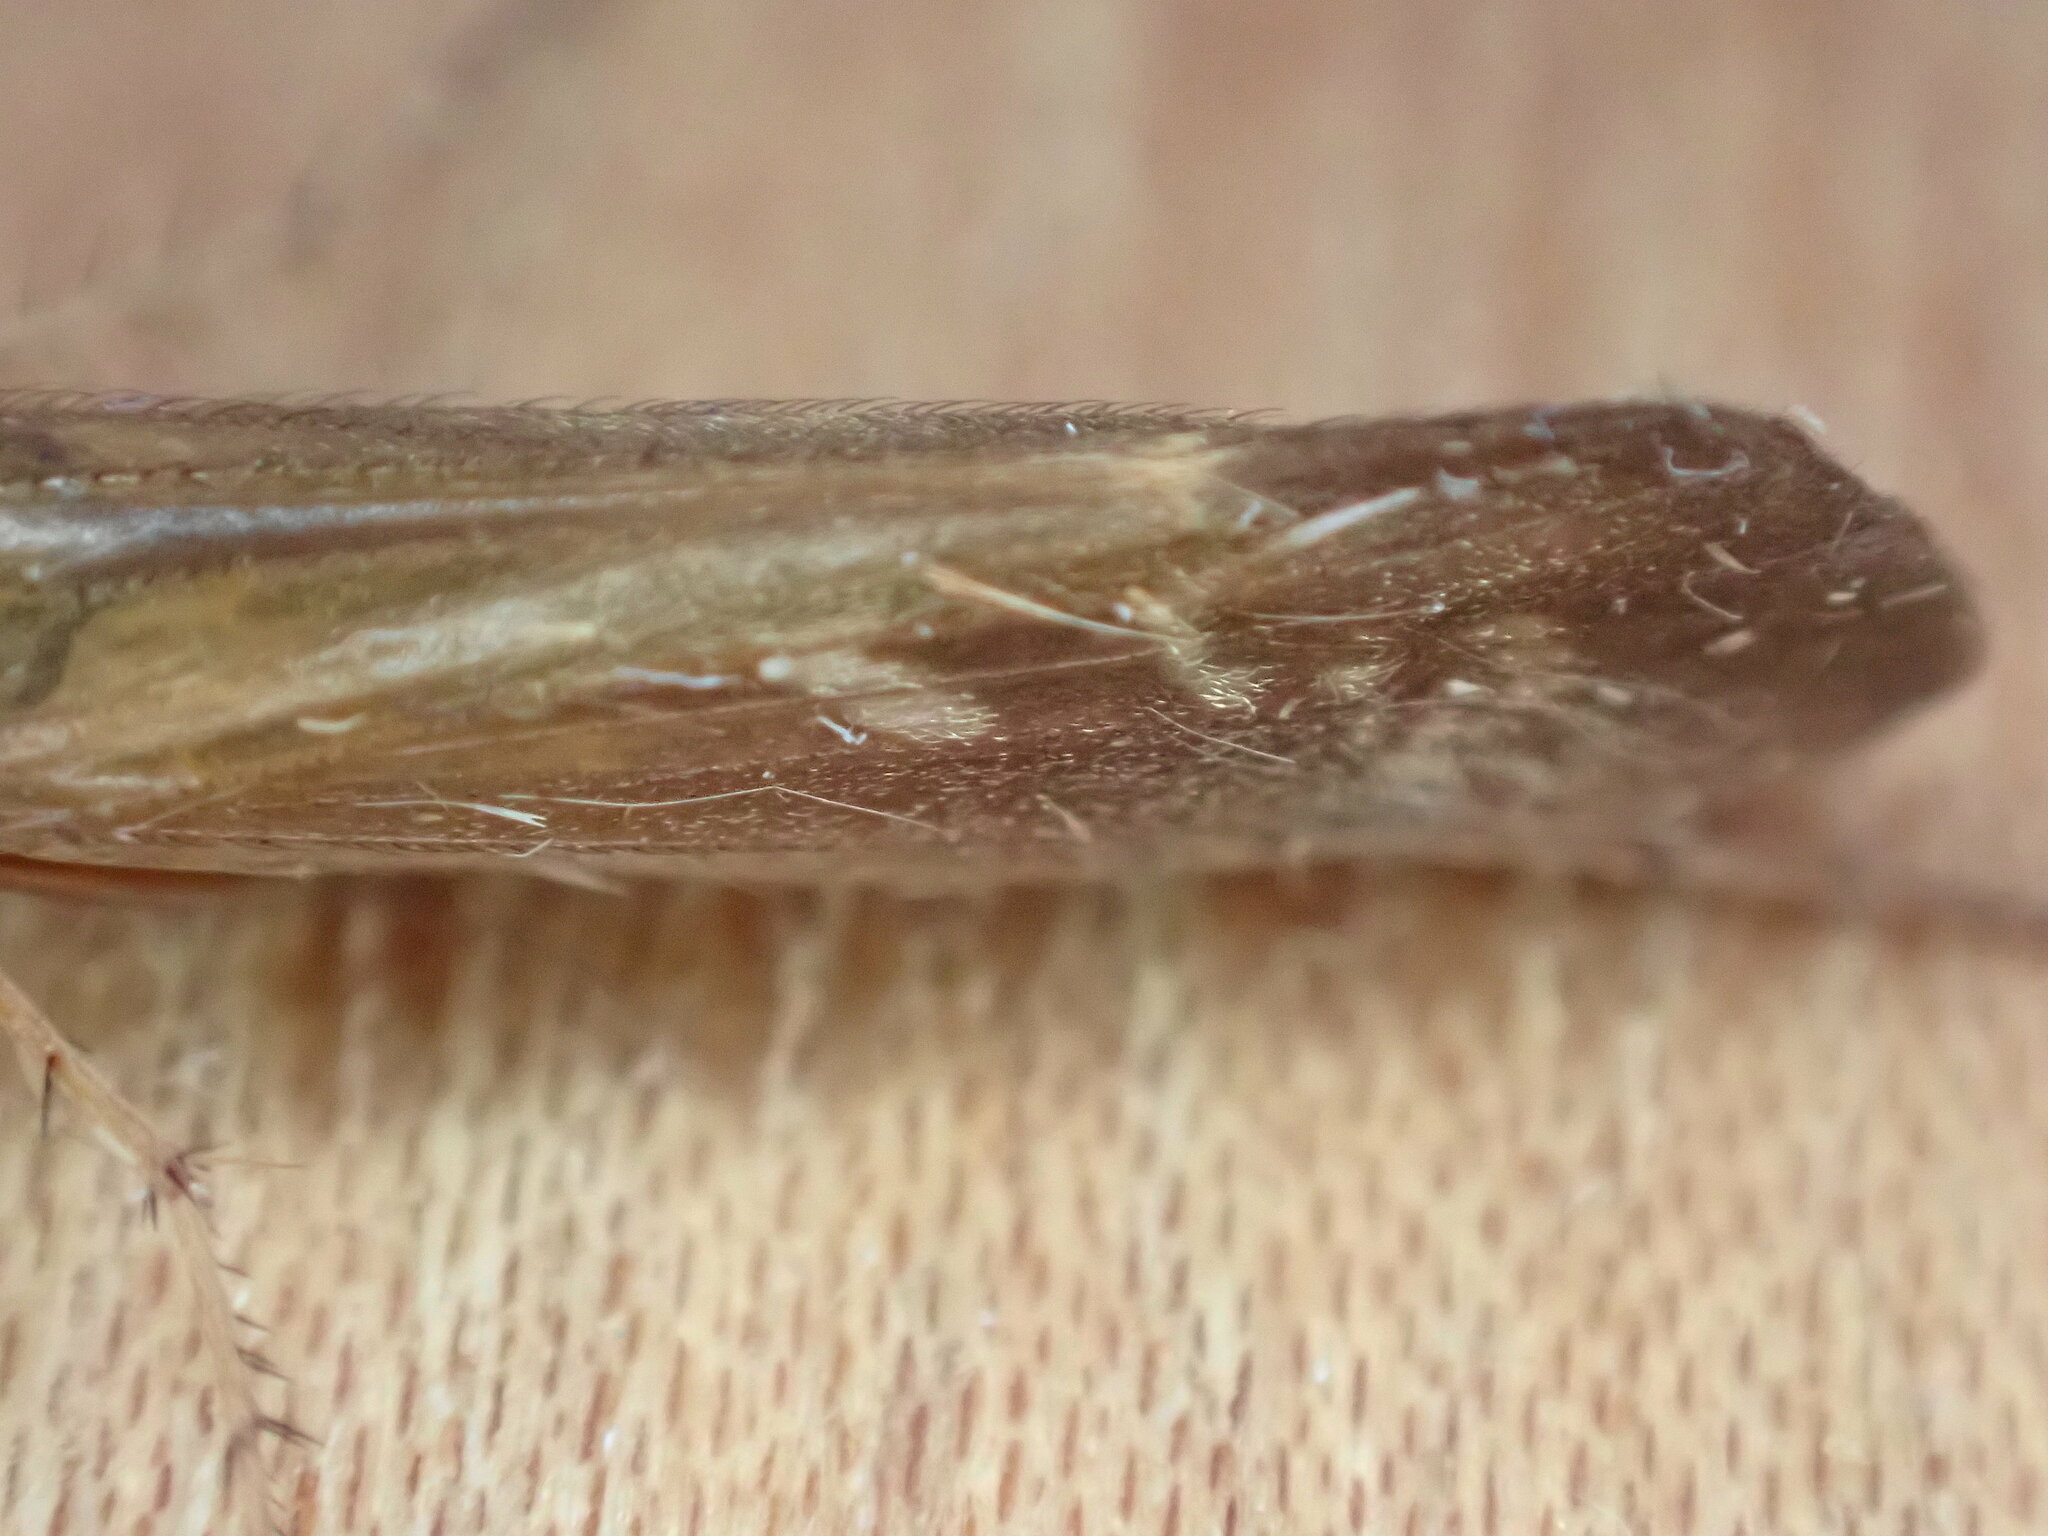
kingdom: Animalia
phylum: Arthropoda
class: Insecta
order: Trichoptera
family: Limnephilidae
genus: Limnephilus
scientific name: Limnephilus auricula
